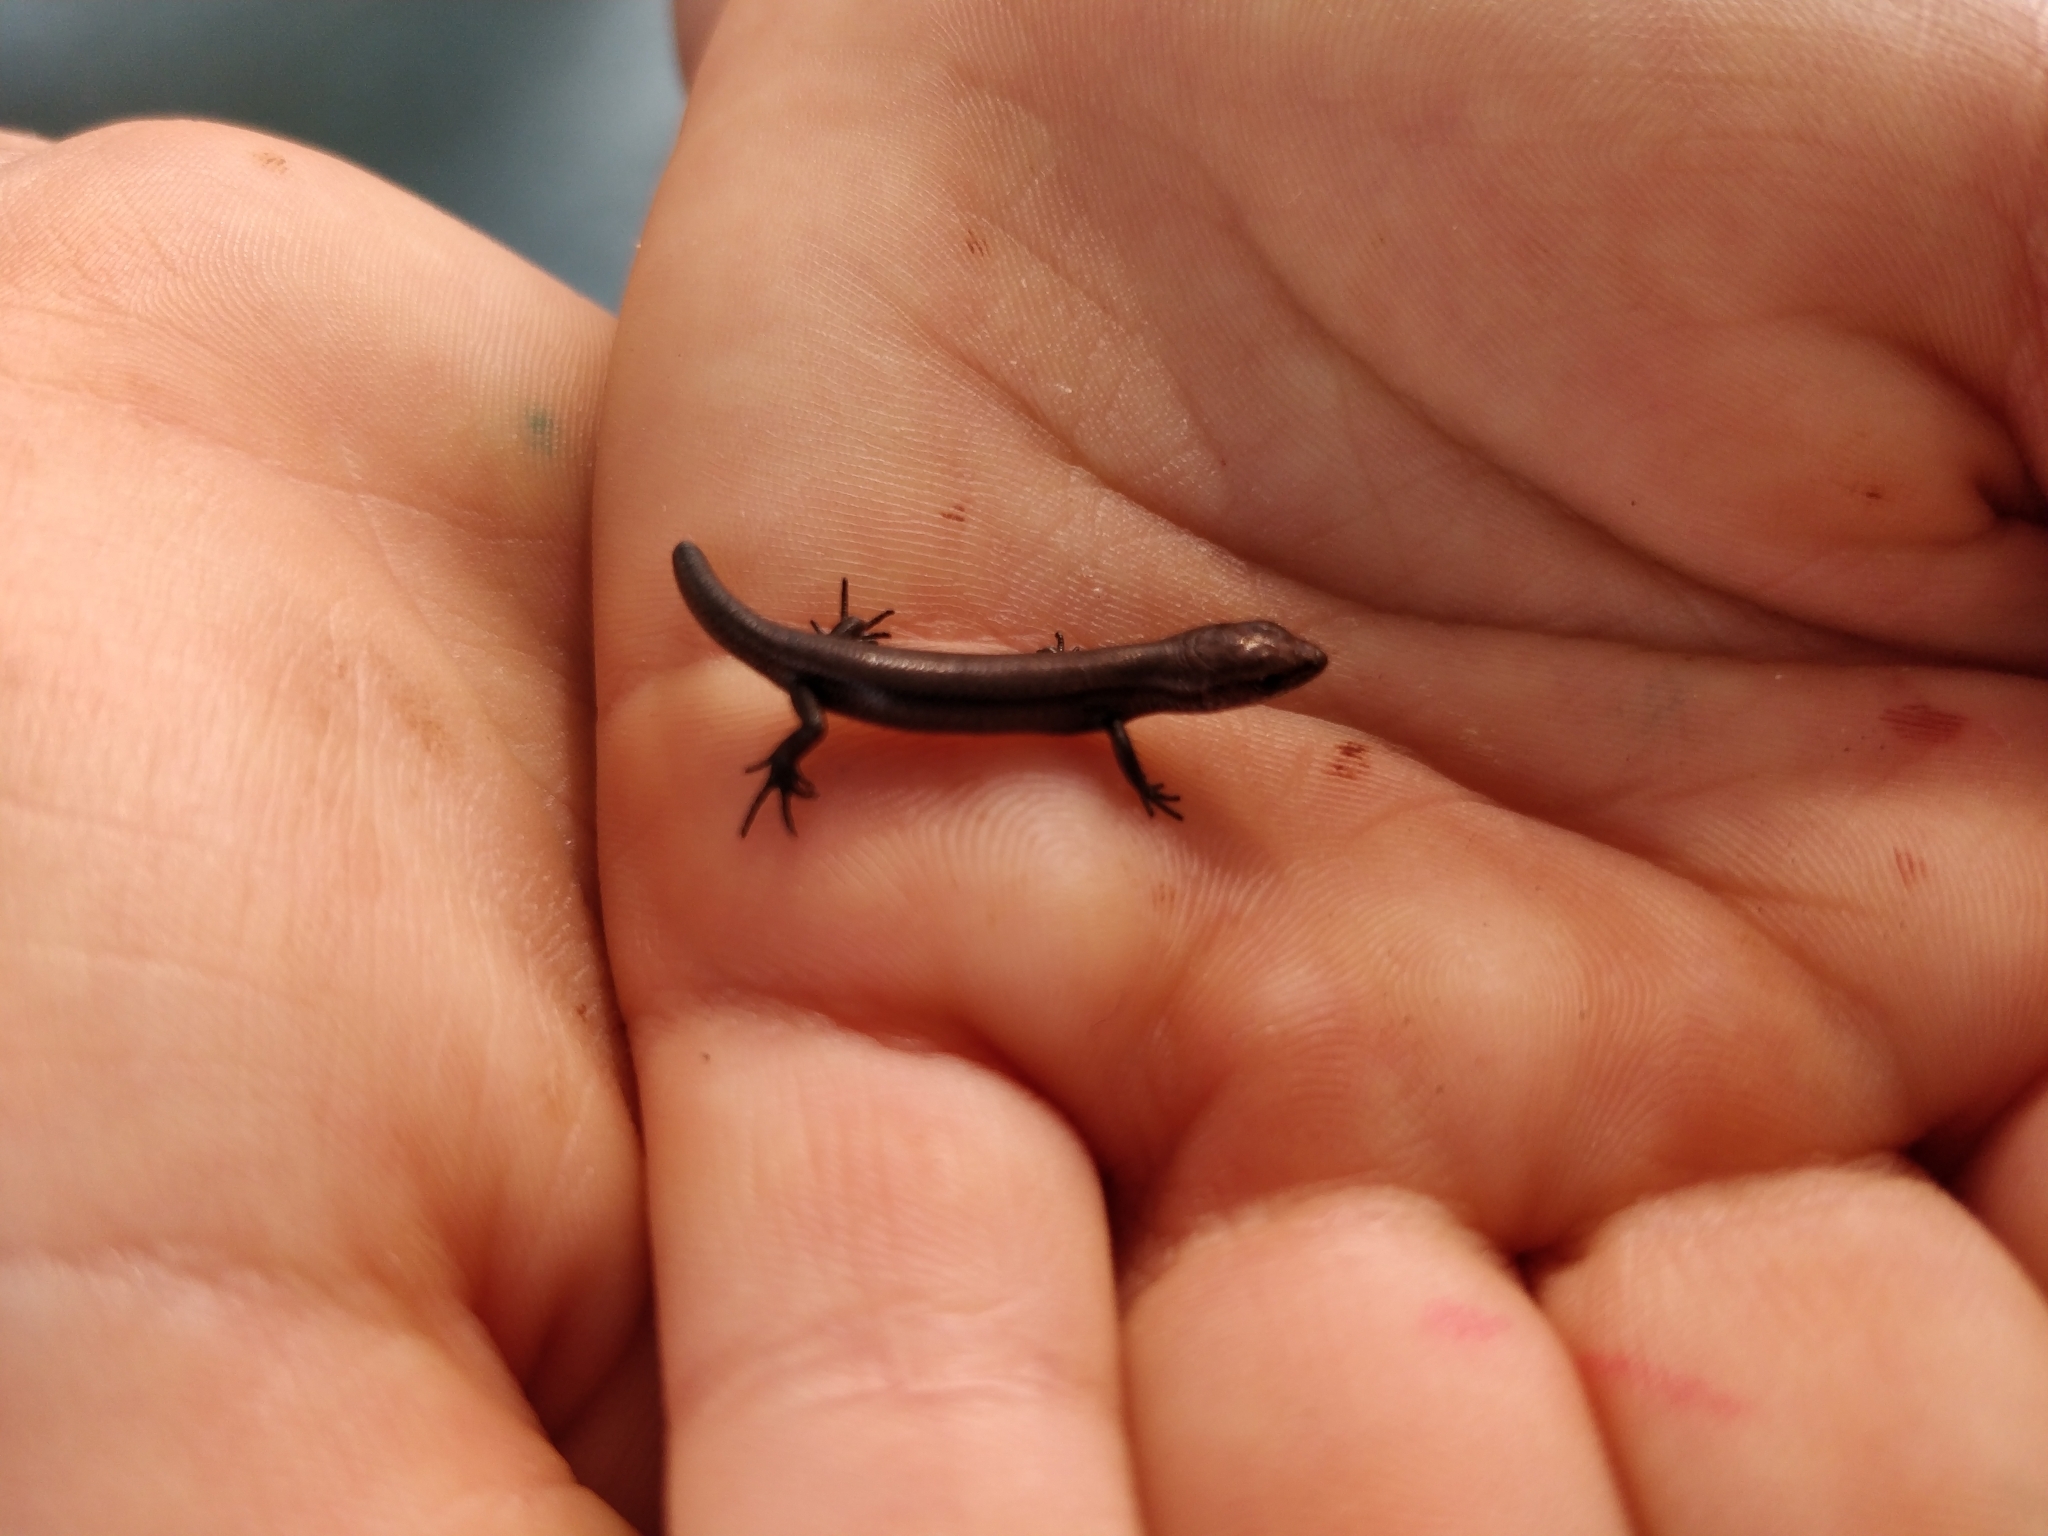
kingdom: Animalia
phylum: Chordata
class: Squamata
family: Scincidae
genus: Lampropholis
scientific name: Lampropholis delicata
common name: Plague skink
